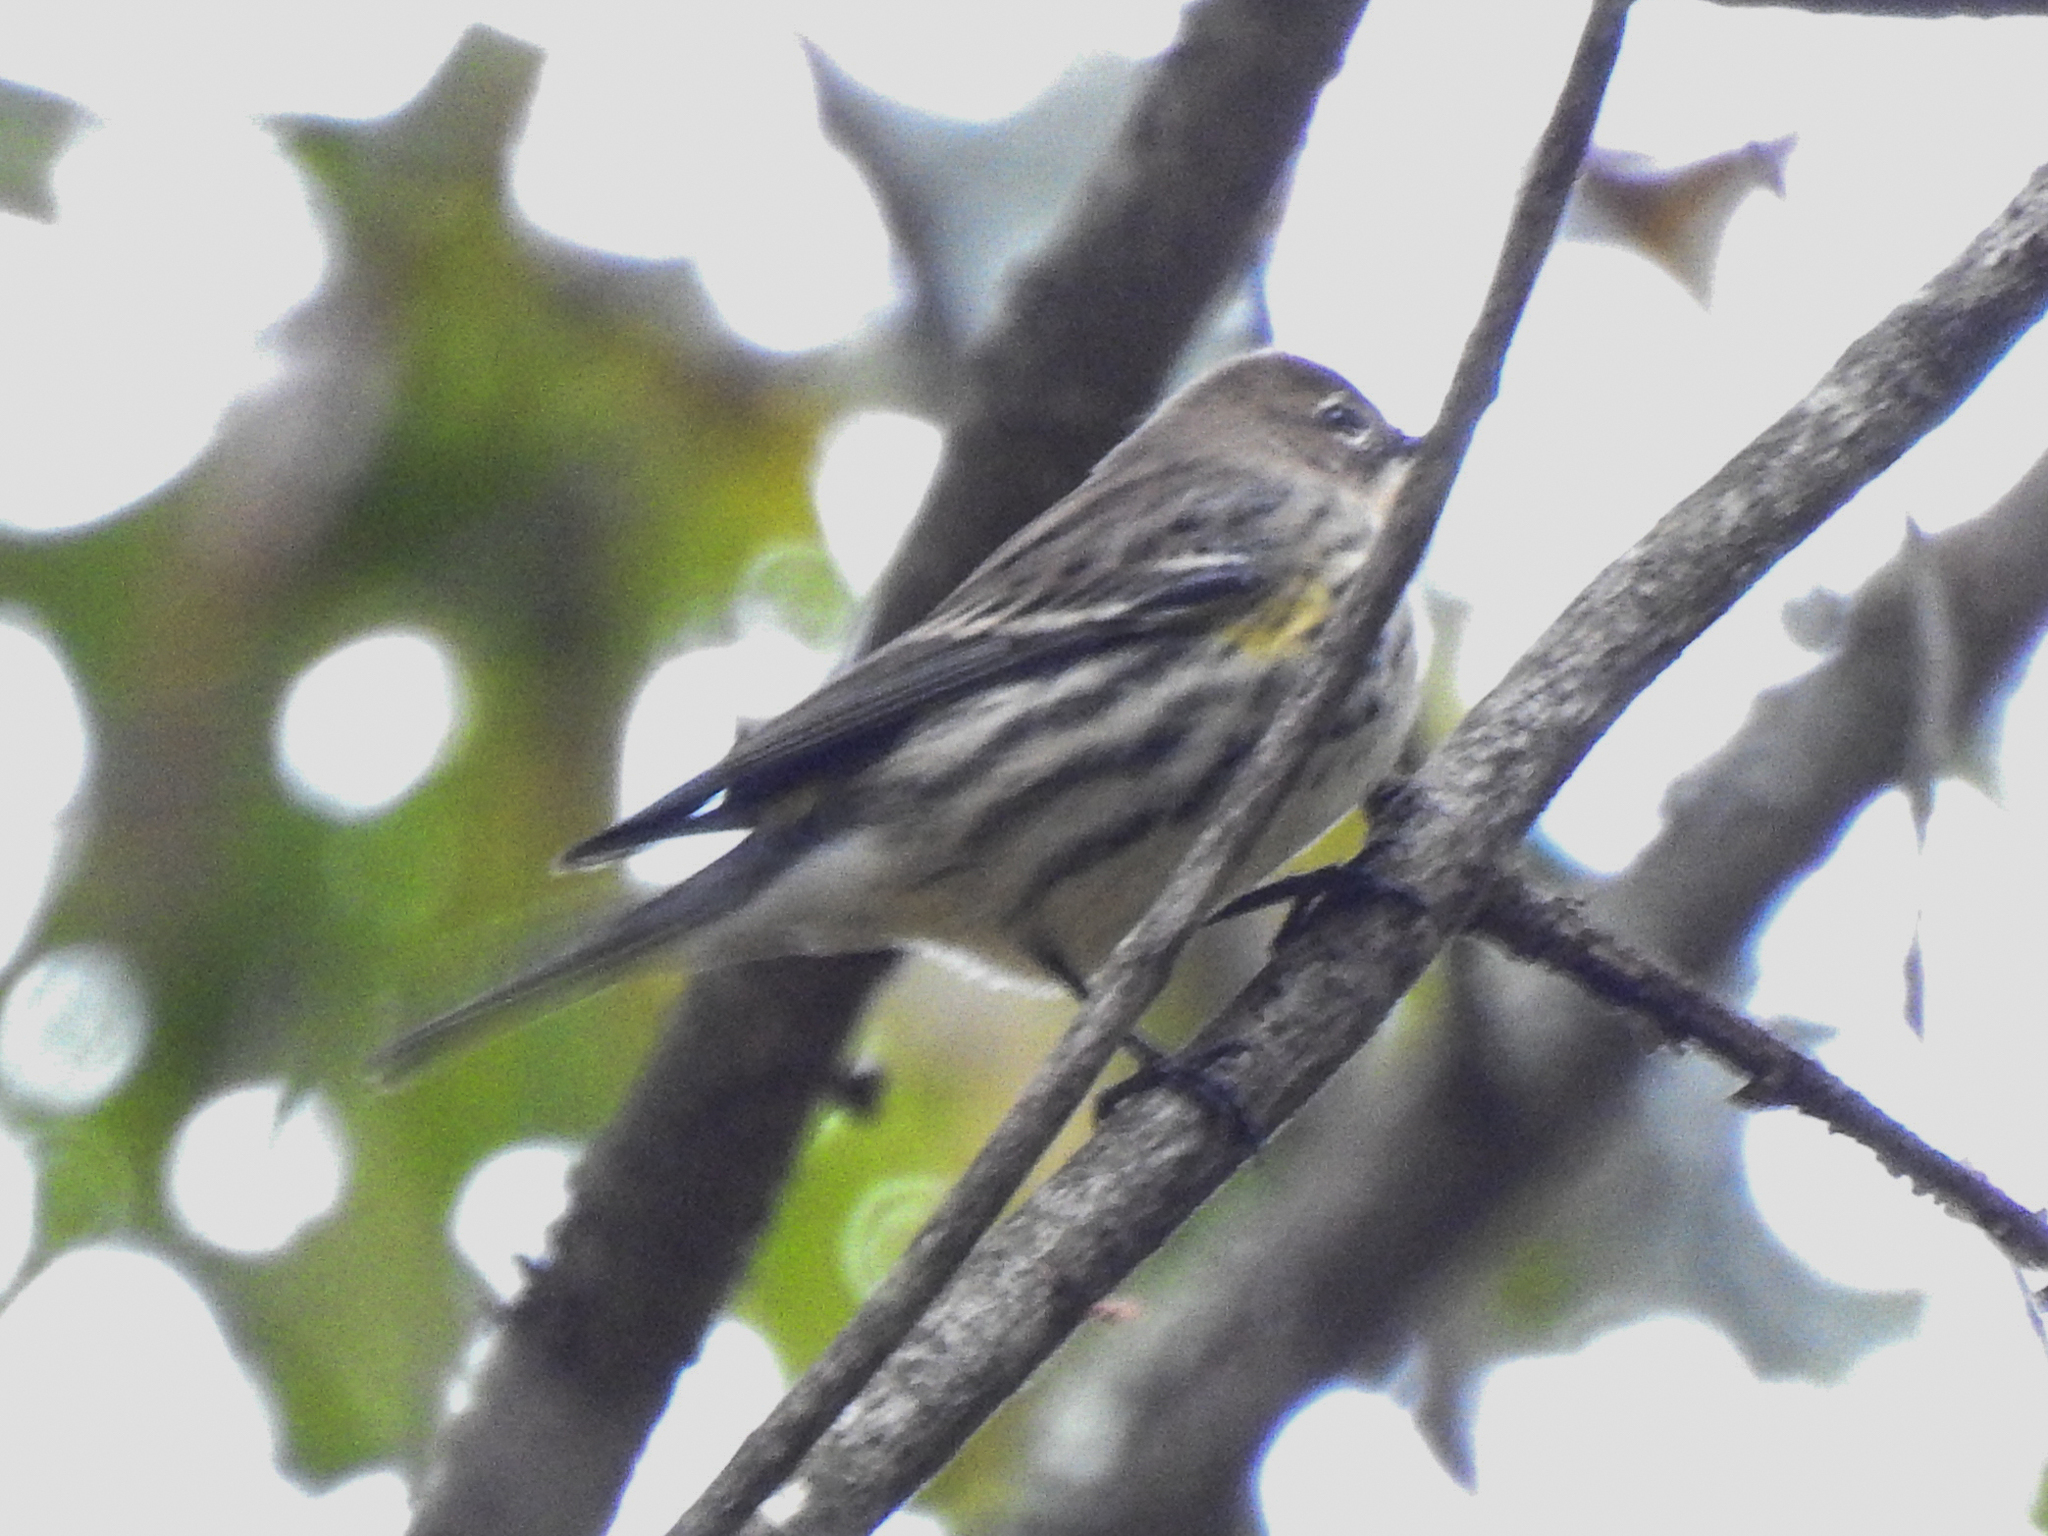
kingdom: Animalia
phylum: Chordata
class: Aves
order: Passeriformes
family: Parulidae
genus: Setophaga
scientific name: Setophaga coronata
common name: Myrtle warbler
